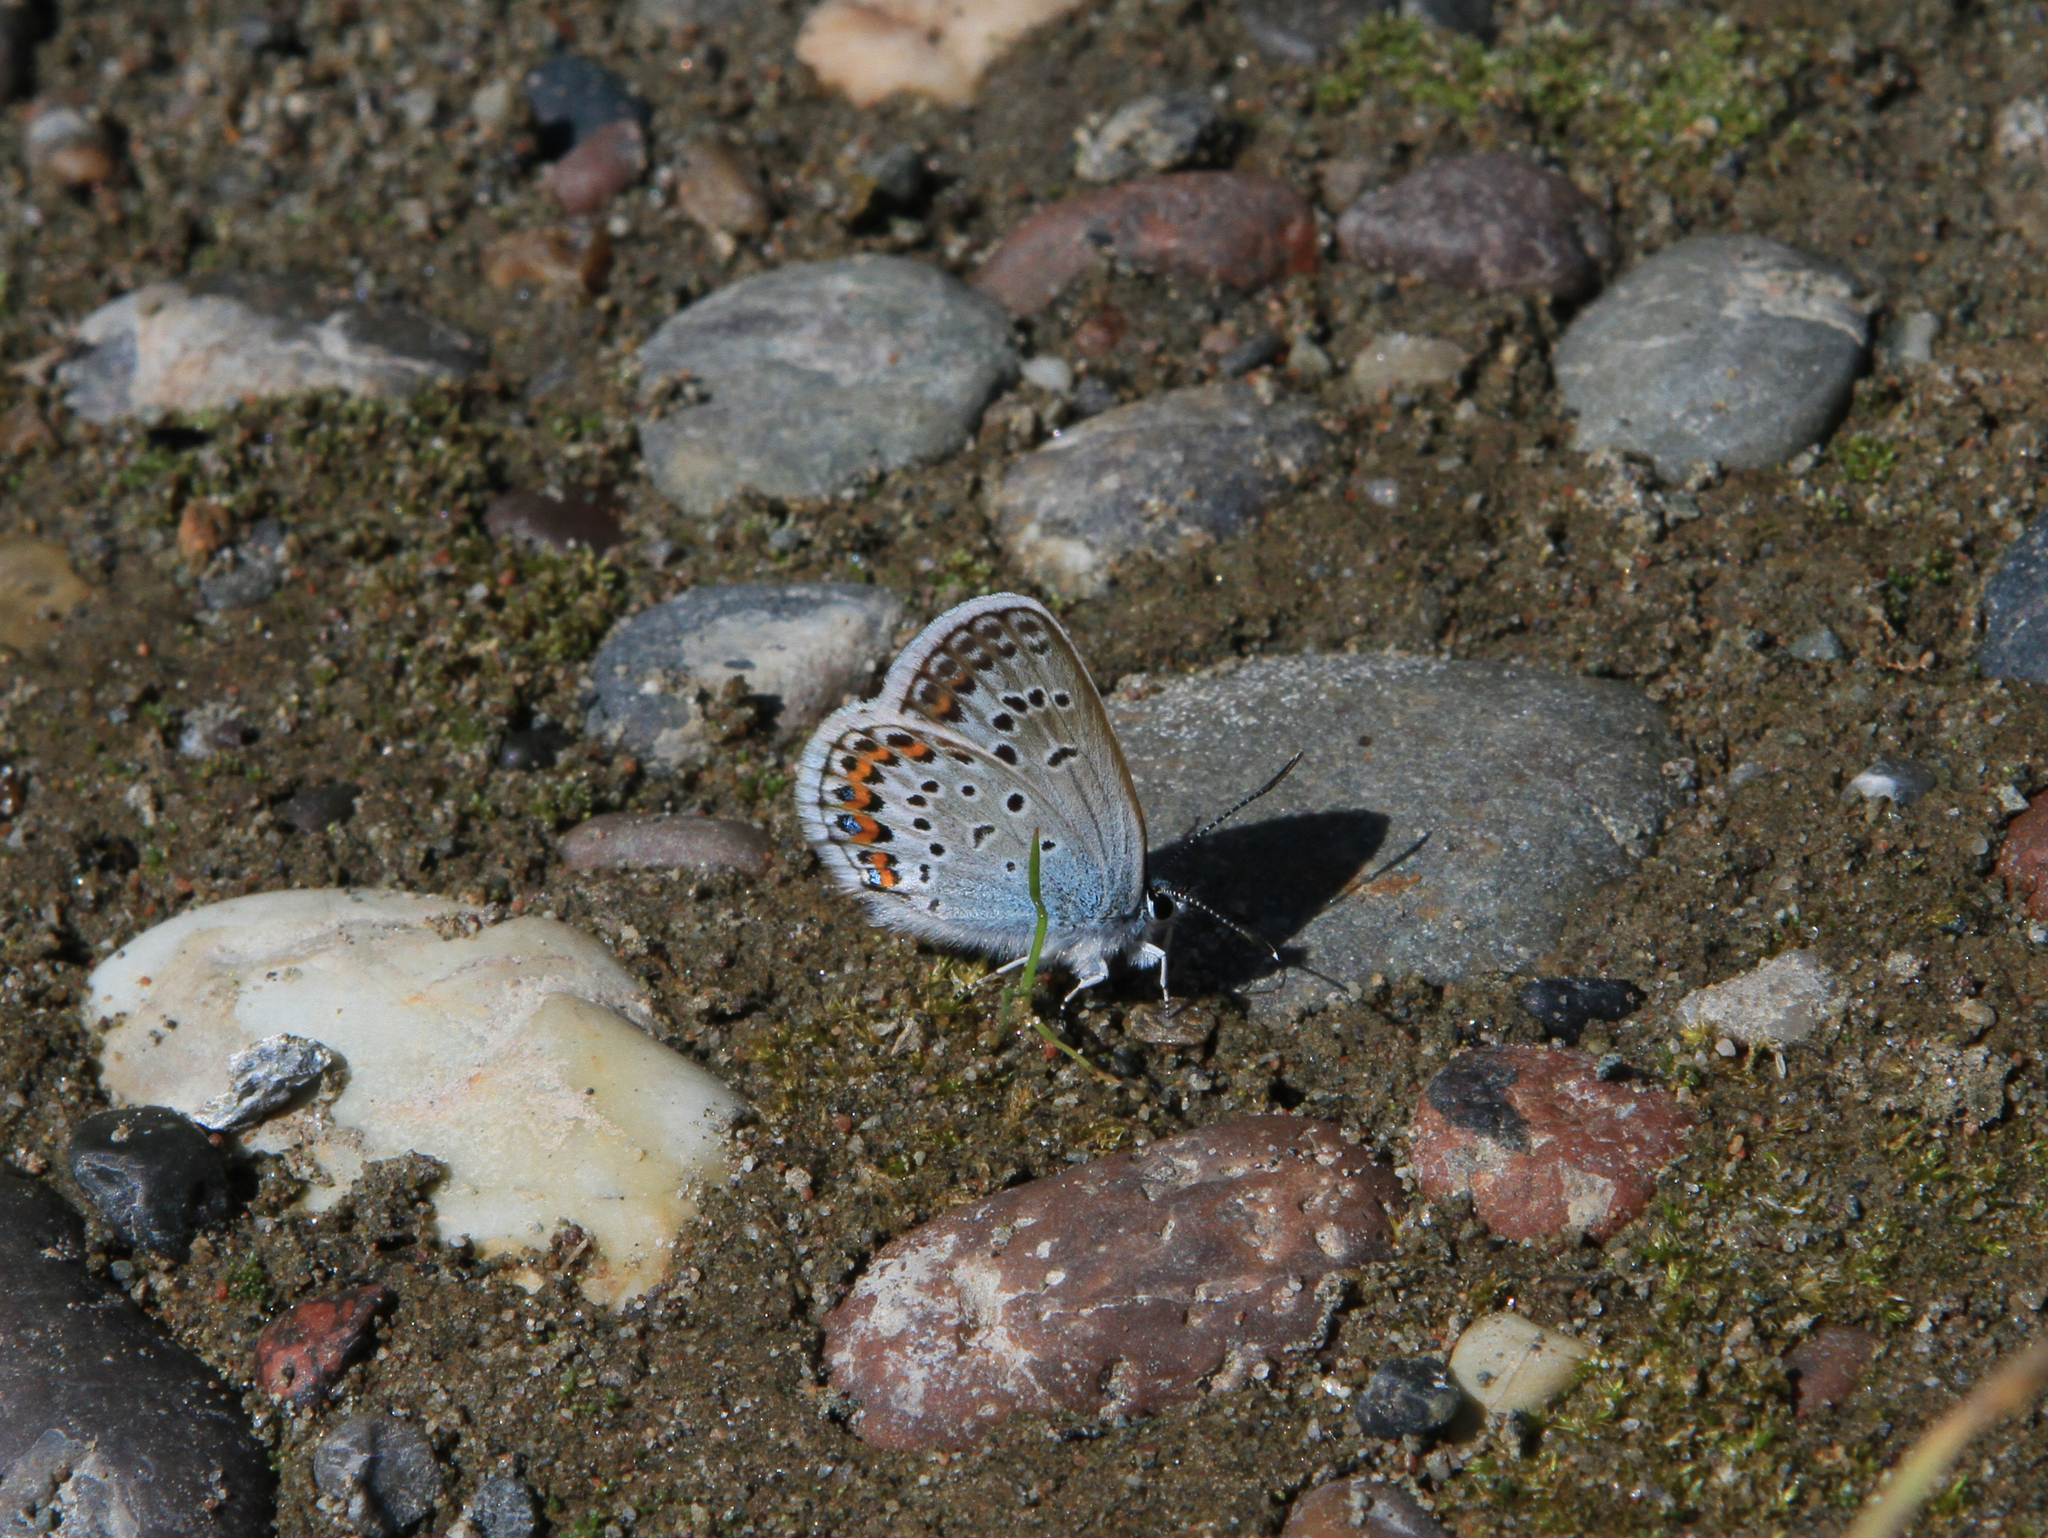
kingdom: Animalia
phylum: Arthropoda
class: Insecta
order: Lepidoptera
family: Lycaenidae
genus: Plebejus
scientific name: Plebejus argus
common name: Silver-studded blue
